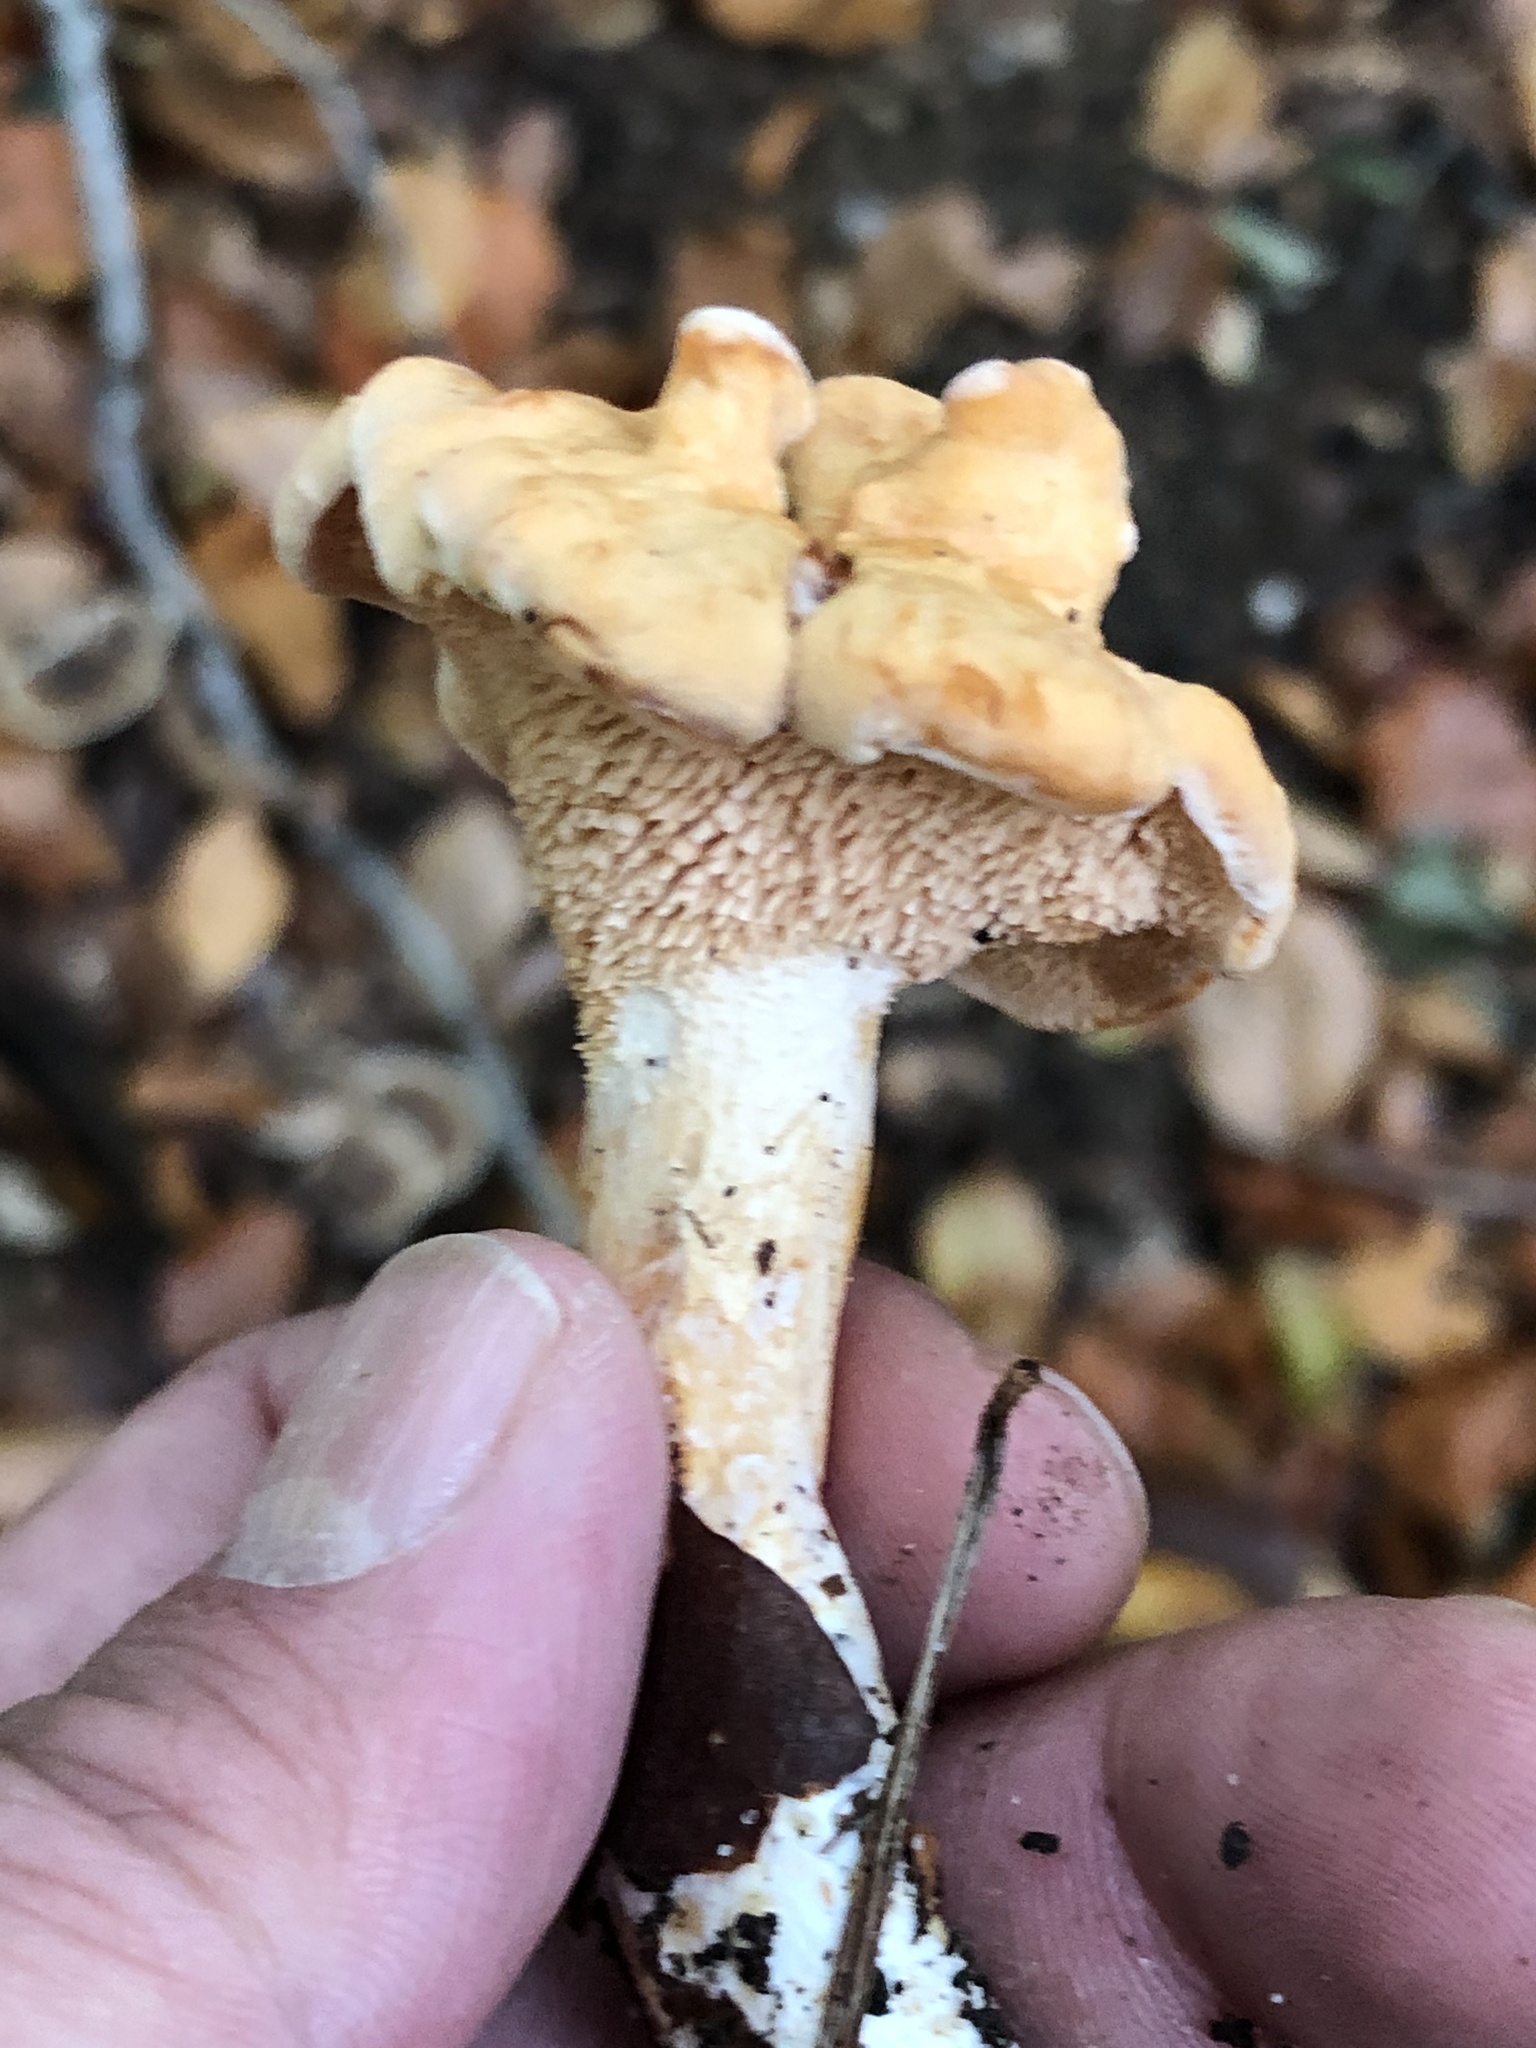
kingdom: Fungi
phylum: Basidiomycota
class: Agaricomycetes
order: Cantharellales
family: Hydnaceae
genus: Hydnum
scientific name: Hydnum repandum
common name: Wood hedgehog
